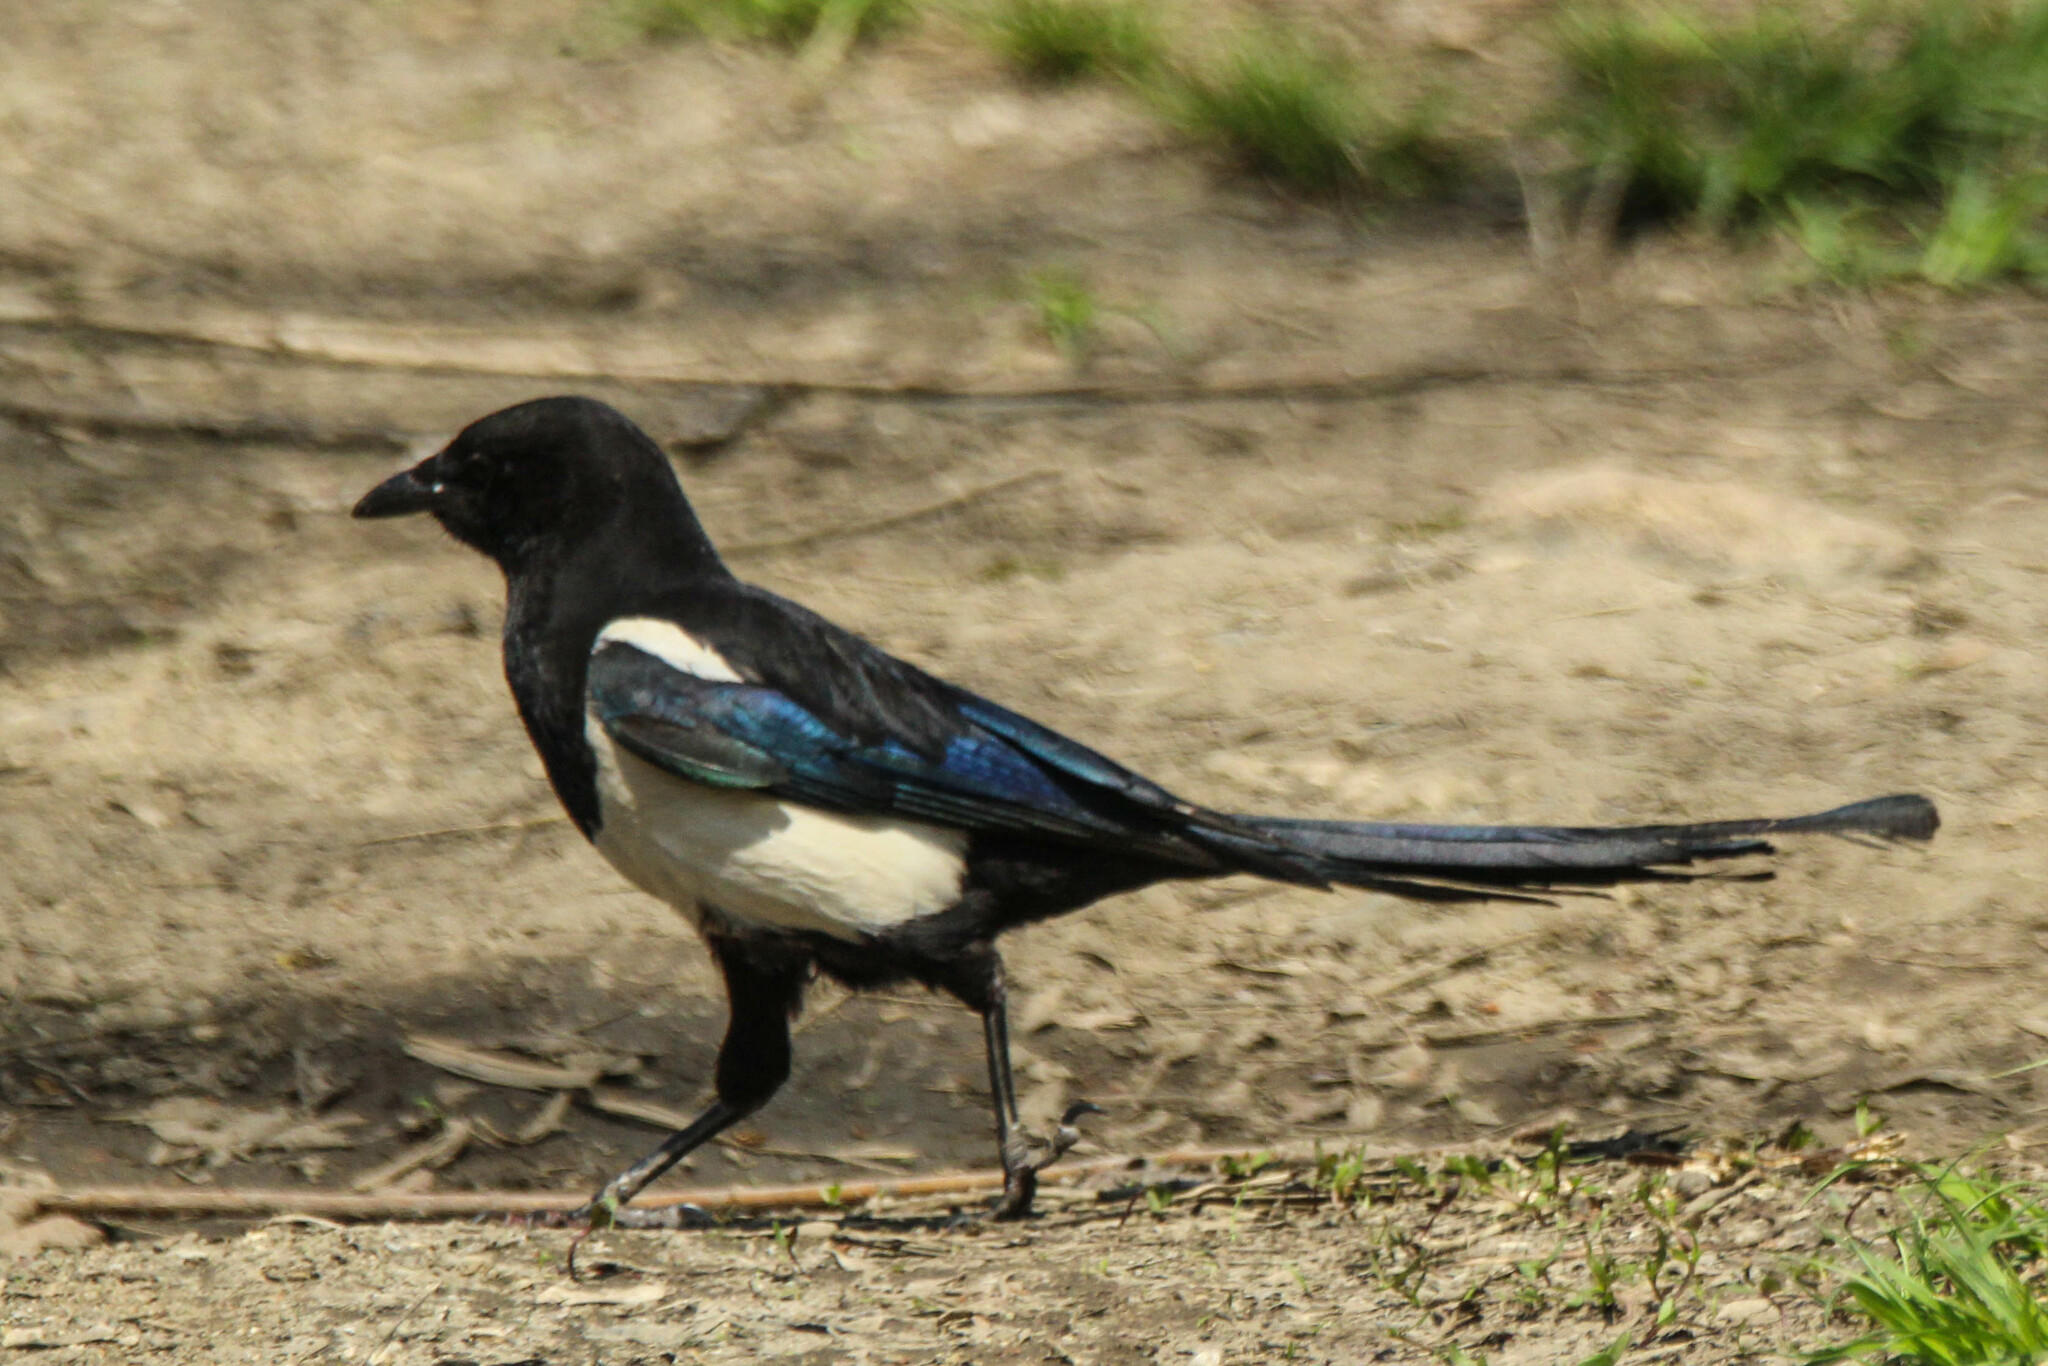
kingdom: Animalia
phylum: Chordata
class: Aves
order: Passeriformes
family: Corvidae
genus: Pica
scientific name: Pica serica
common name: Oriental magpie
